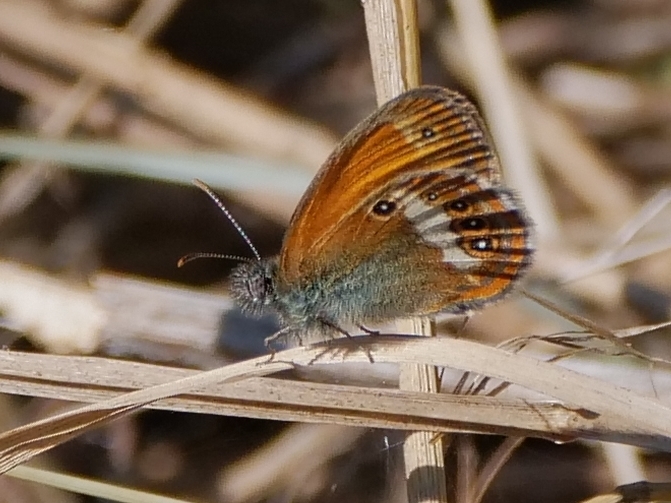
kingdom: Animalia
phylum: Arthropoda
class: Insecta
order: Lepidoptera
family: Nymphalidae
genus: Coenonympha
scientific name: Coenonympha arcania
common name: Pearly heath
